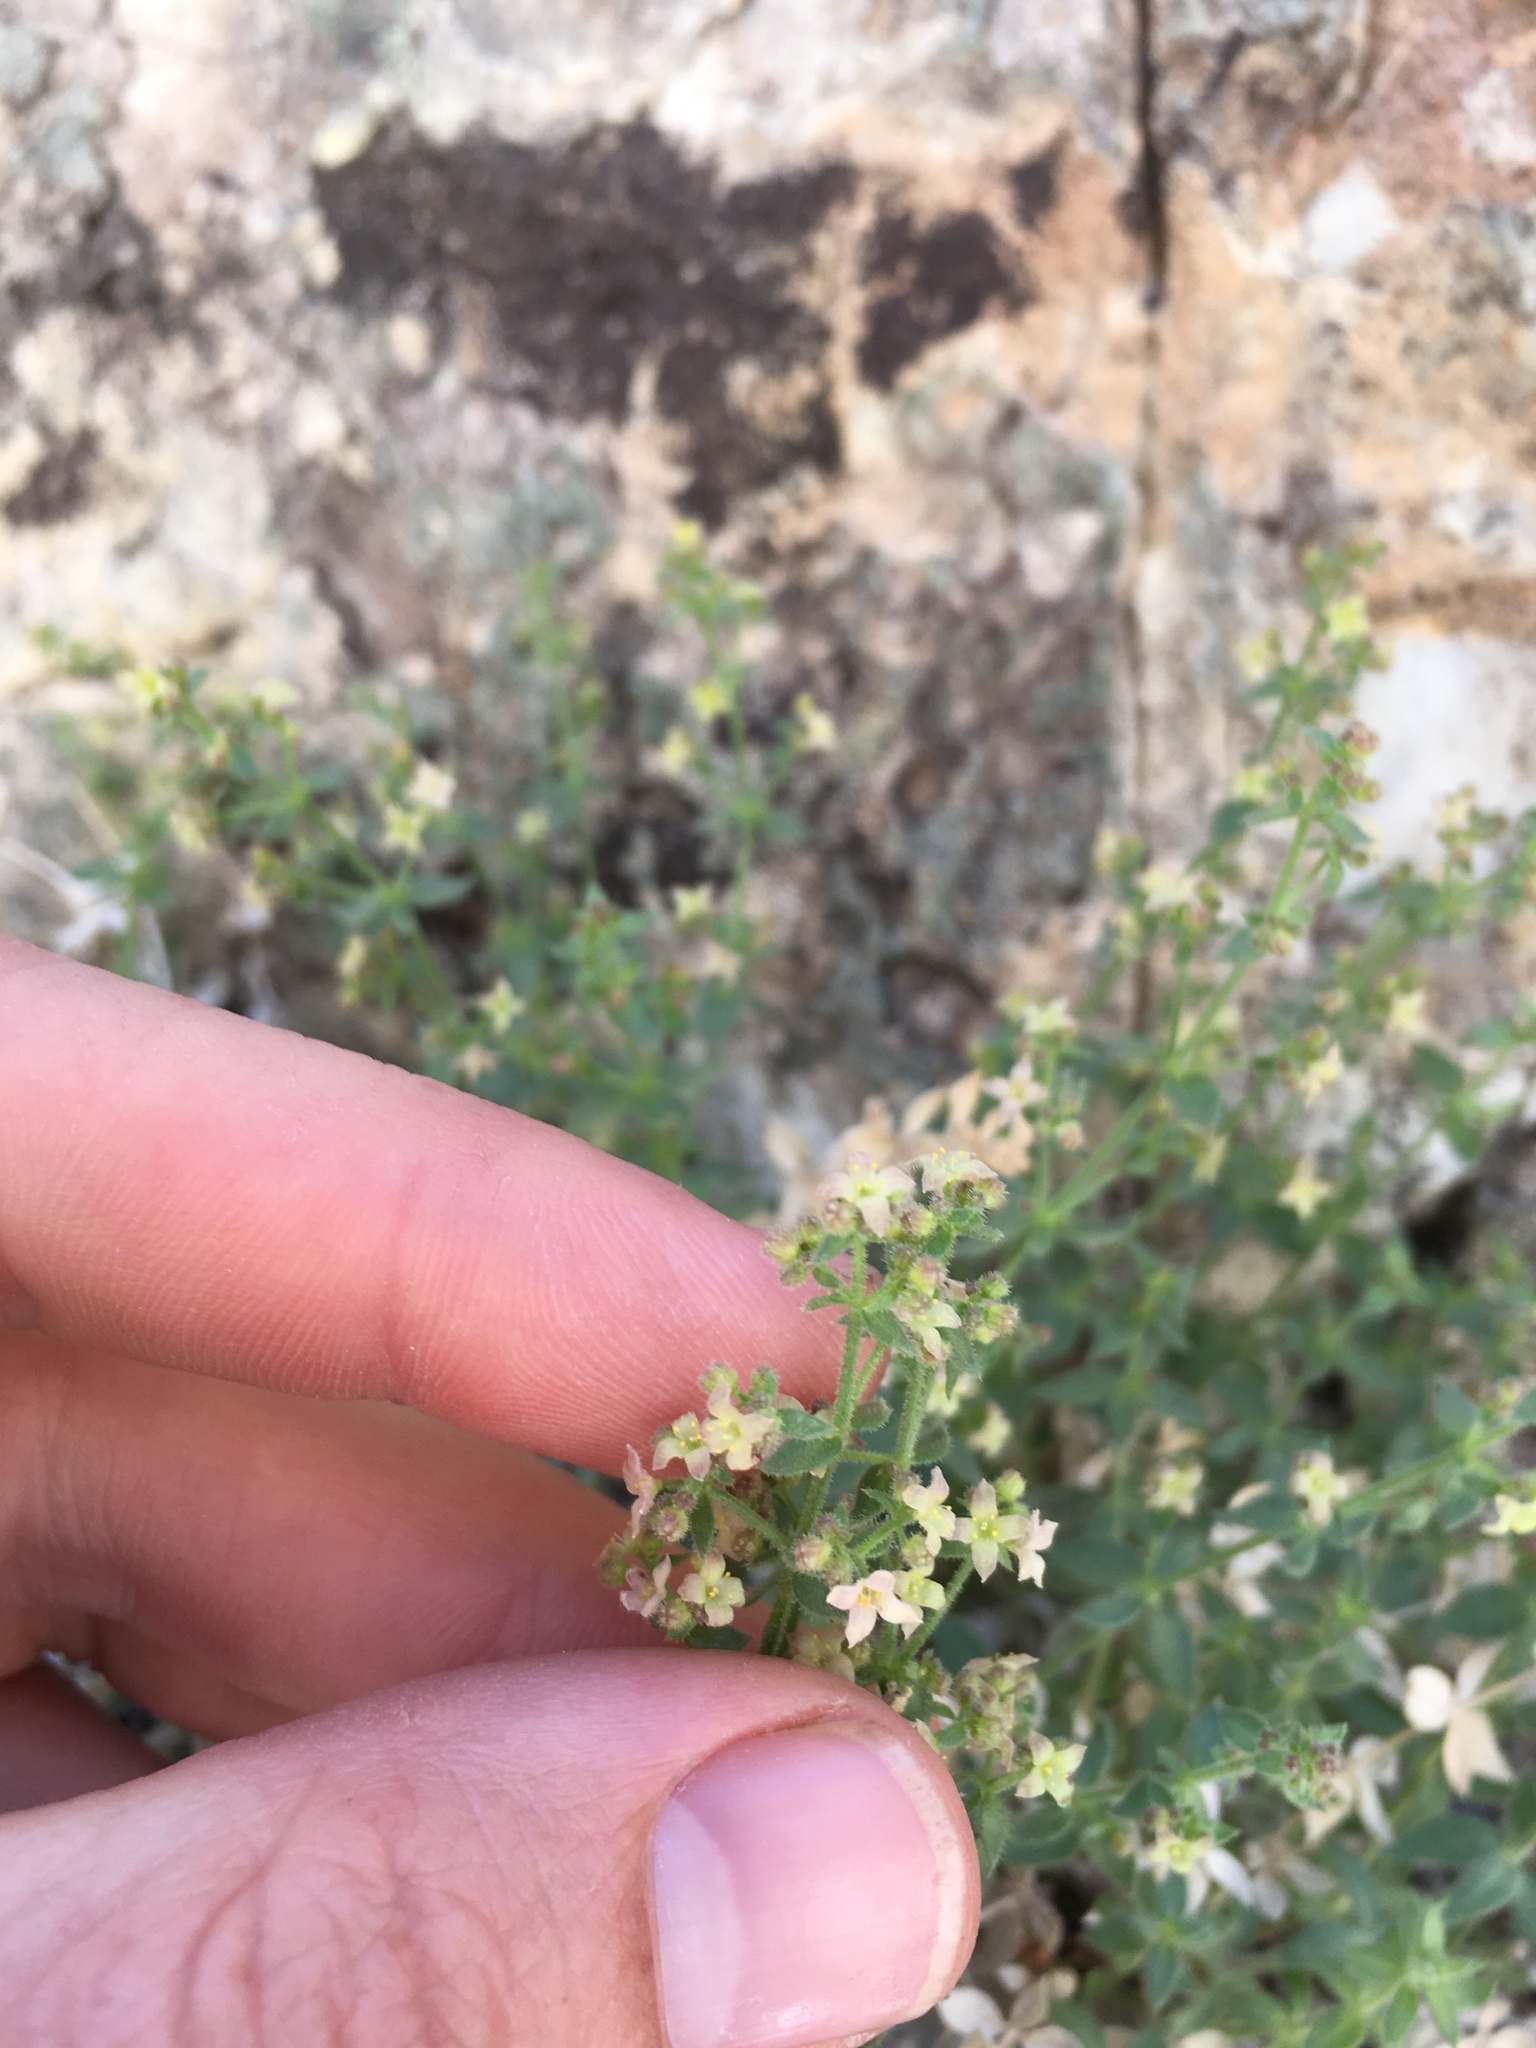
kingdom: Plantae
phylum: Tracheophyta
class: Magnoliopsida
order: Gentianales
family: Rubiaceae
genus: Galium
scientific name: Galium multiflorum
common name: Many-flowered bedstraw
